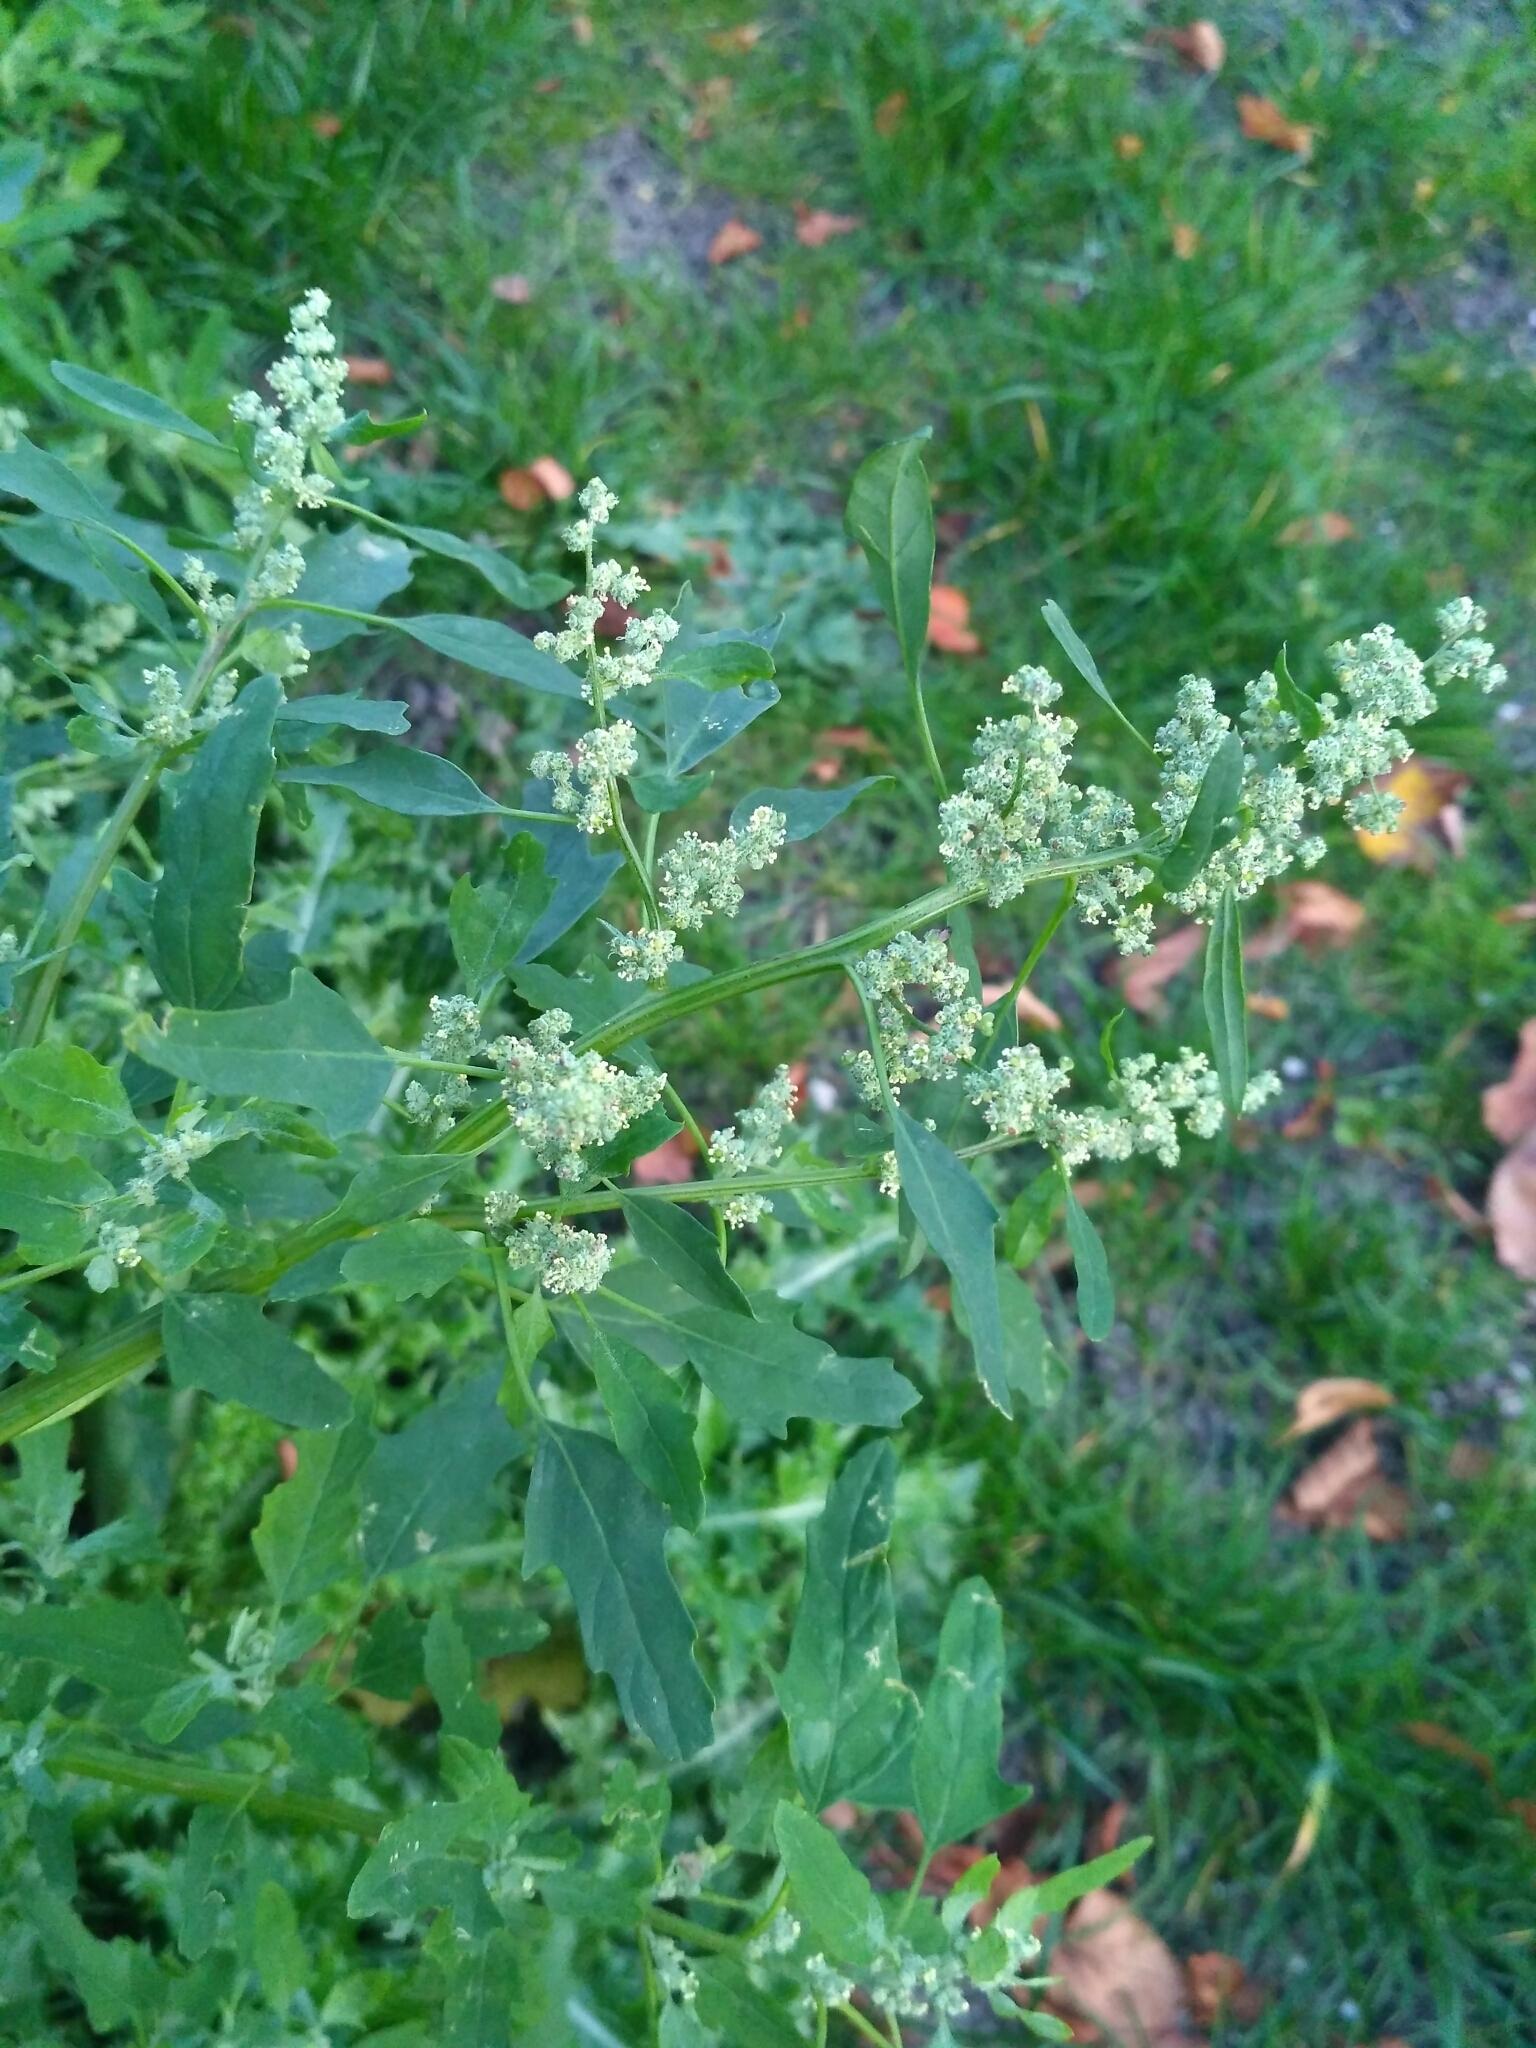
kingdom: Plantae
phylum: Tracheophyta
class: Magnoliopsida
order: Caryophyllales
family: Amaranthaceae
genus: Chenopodium
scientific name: Chenopodium ficifolium
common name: Fig-leaved goosefoot
